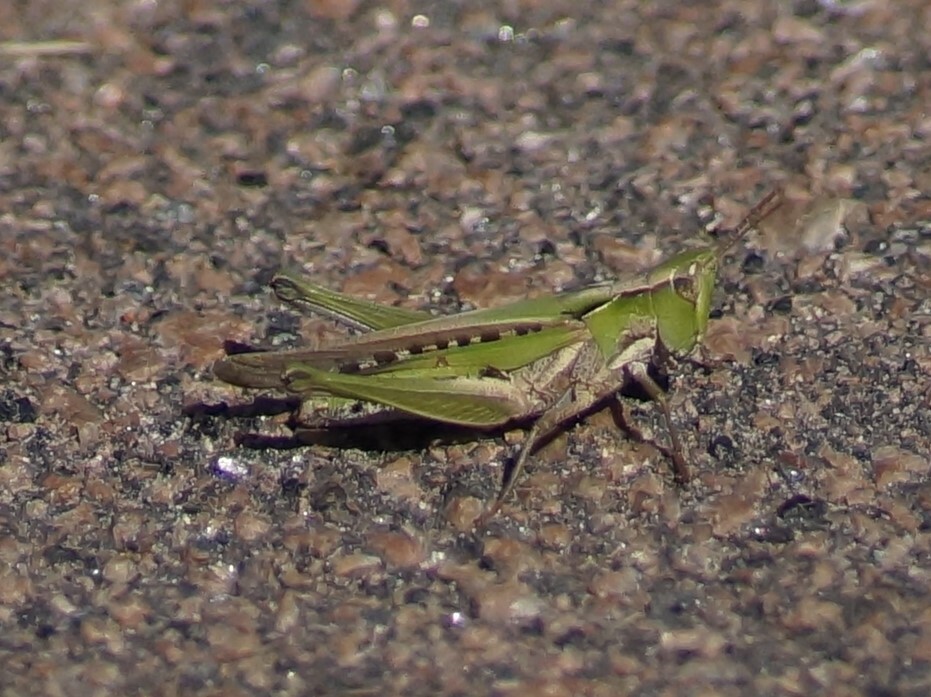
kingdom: Animalia
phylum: Arthropoda
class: Insecta
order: Orthoptera
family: Acrididae
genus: Froggattina
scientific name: Froggattina australis
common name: Froggatt's buzzer
